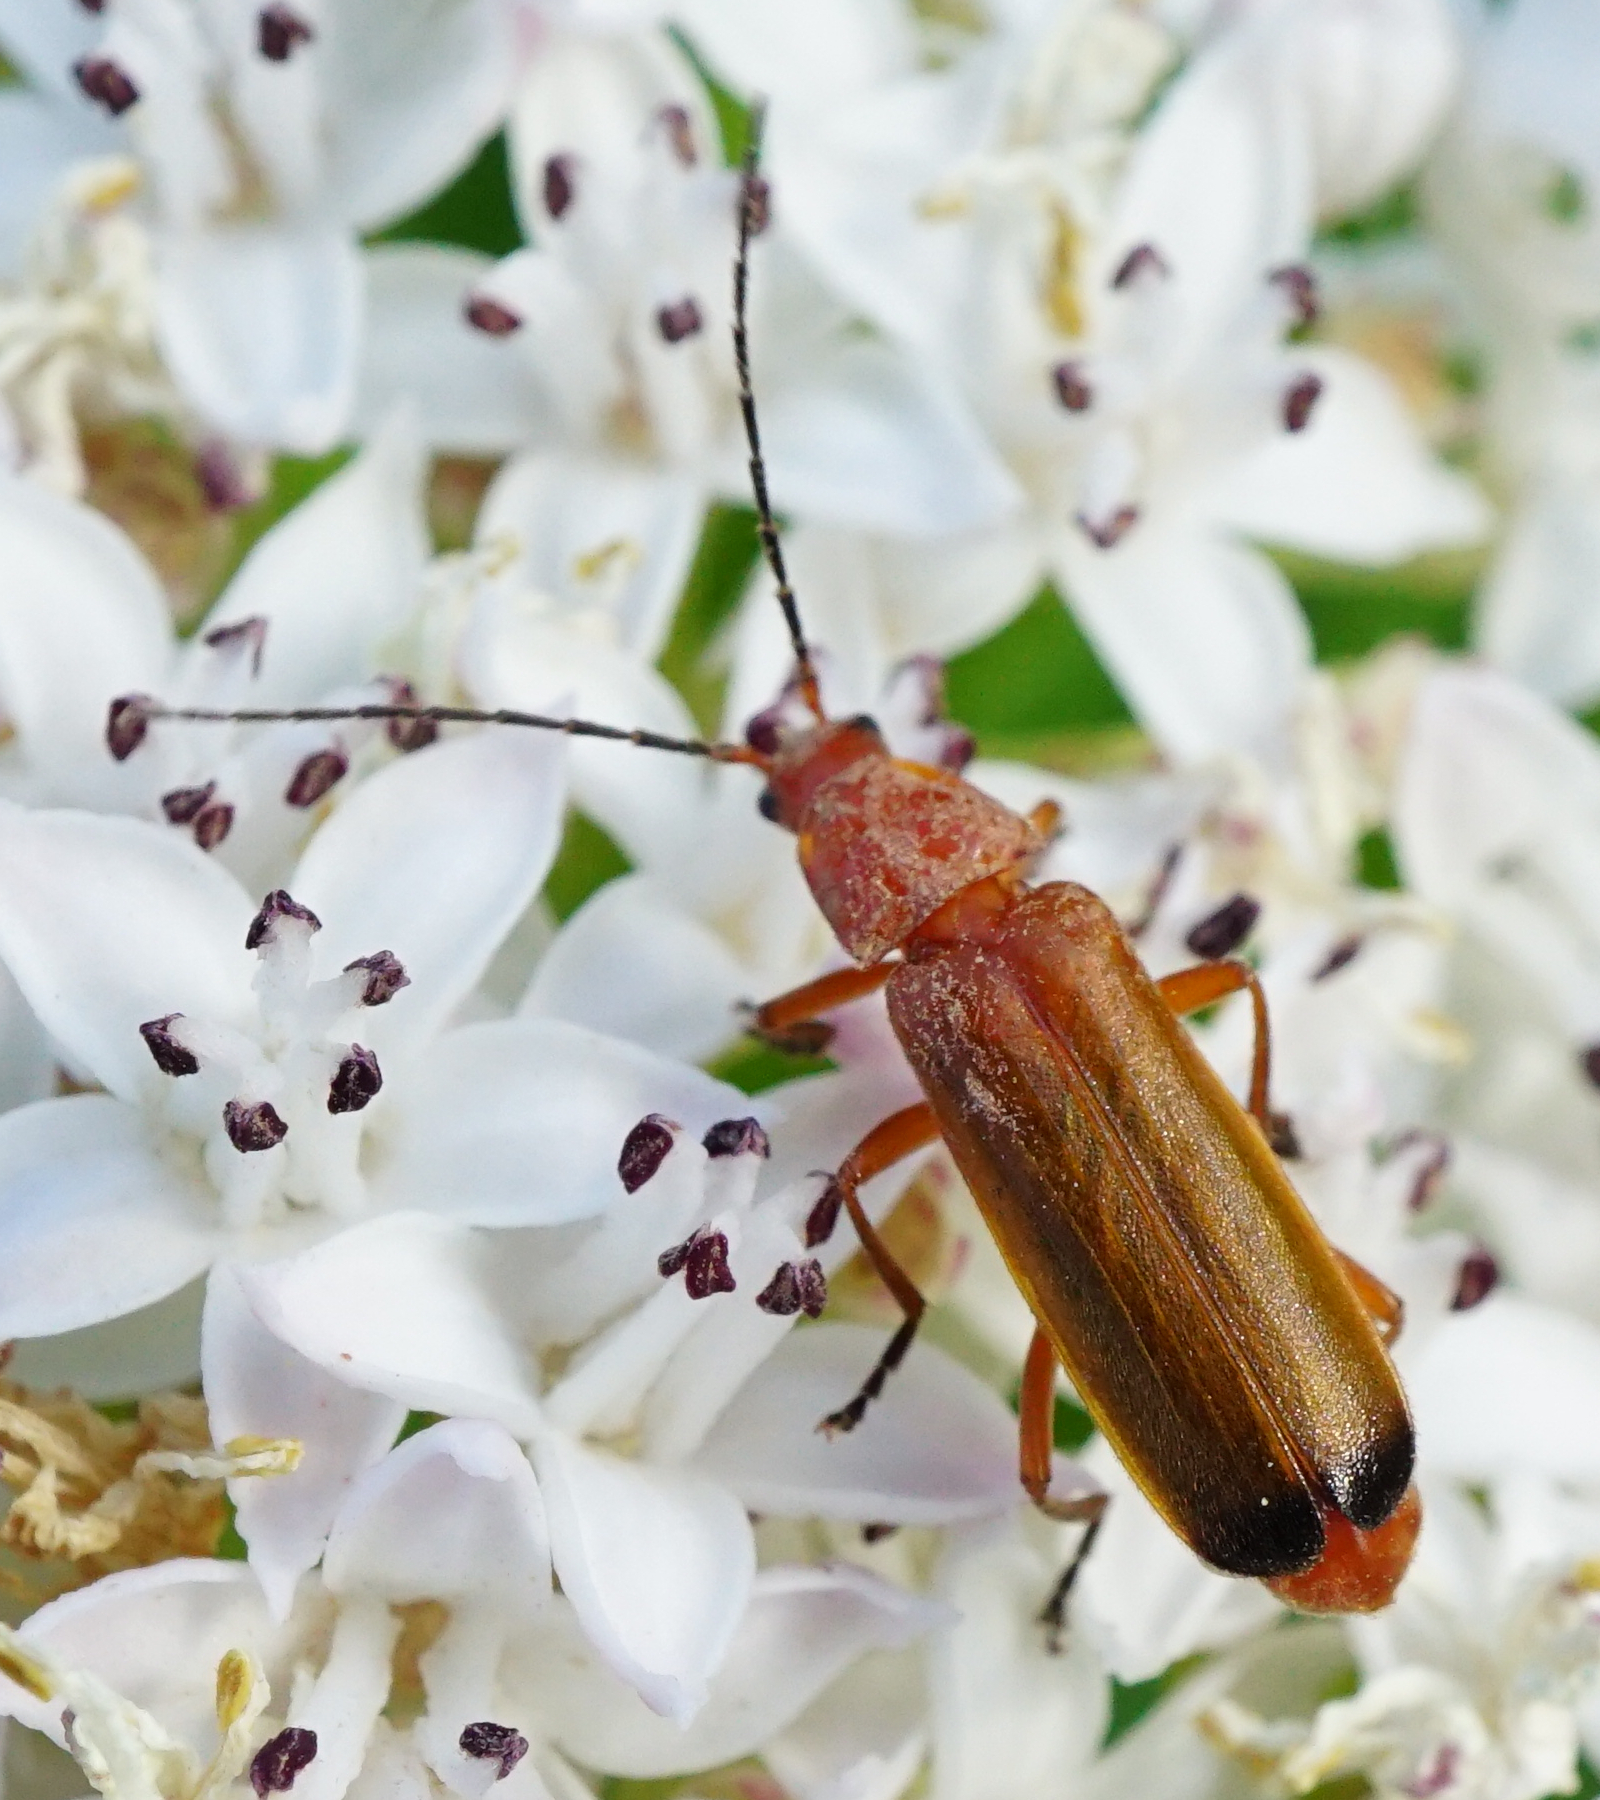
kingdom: Animalia
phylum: Arthropoda
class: Insecta
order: Coleoptera
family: Cantharidae
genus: Rhagonycha
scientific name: Rhagonycha fulva
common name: Common red soldier beetle
